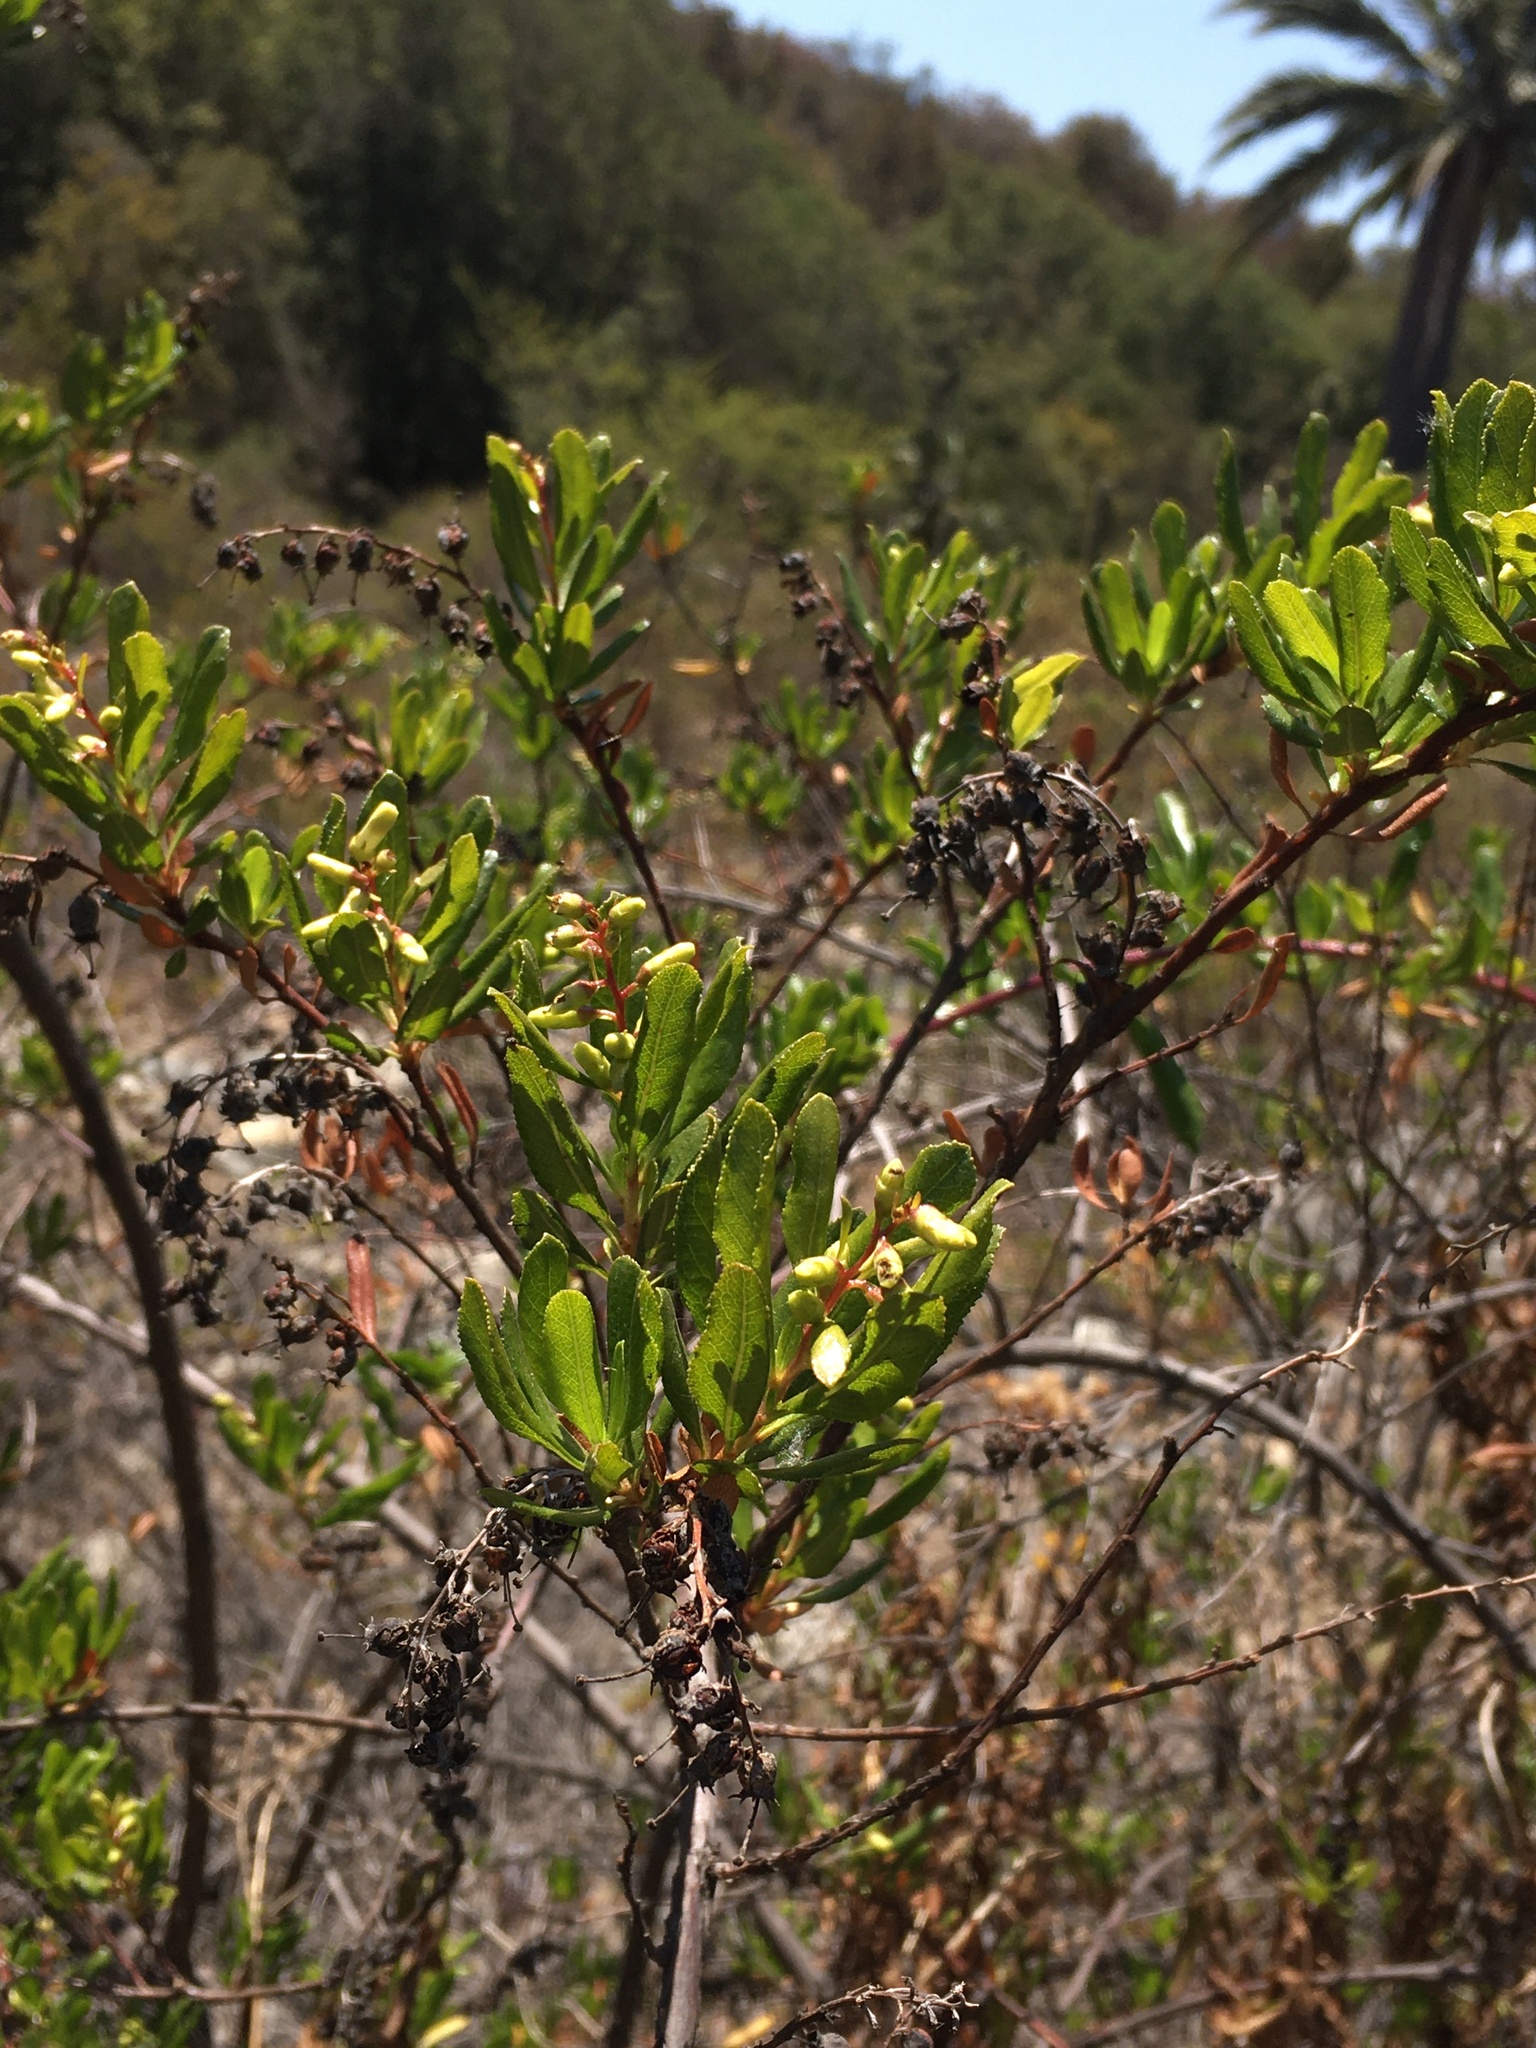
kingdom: Plantae
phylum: Tracheophyta
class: Magnoliopsida
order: Escalloniales
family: Escalloniaceae
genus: Escallonia
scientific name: Escallonia illinita
